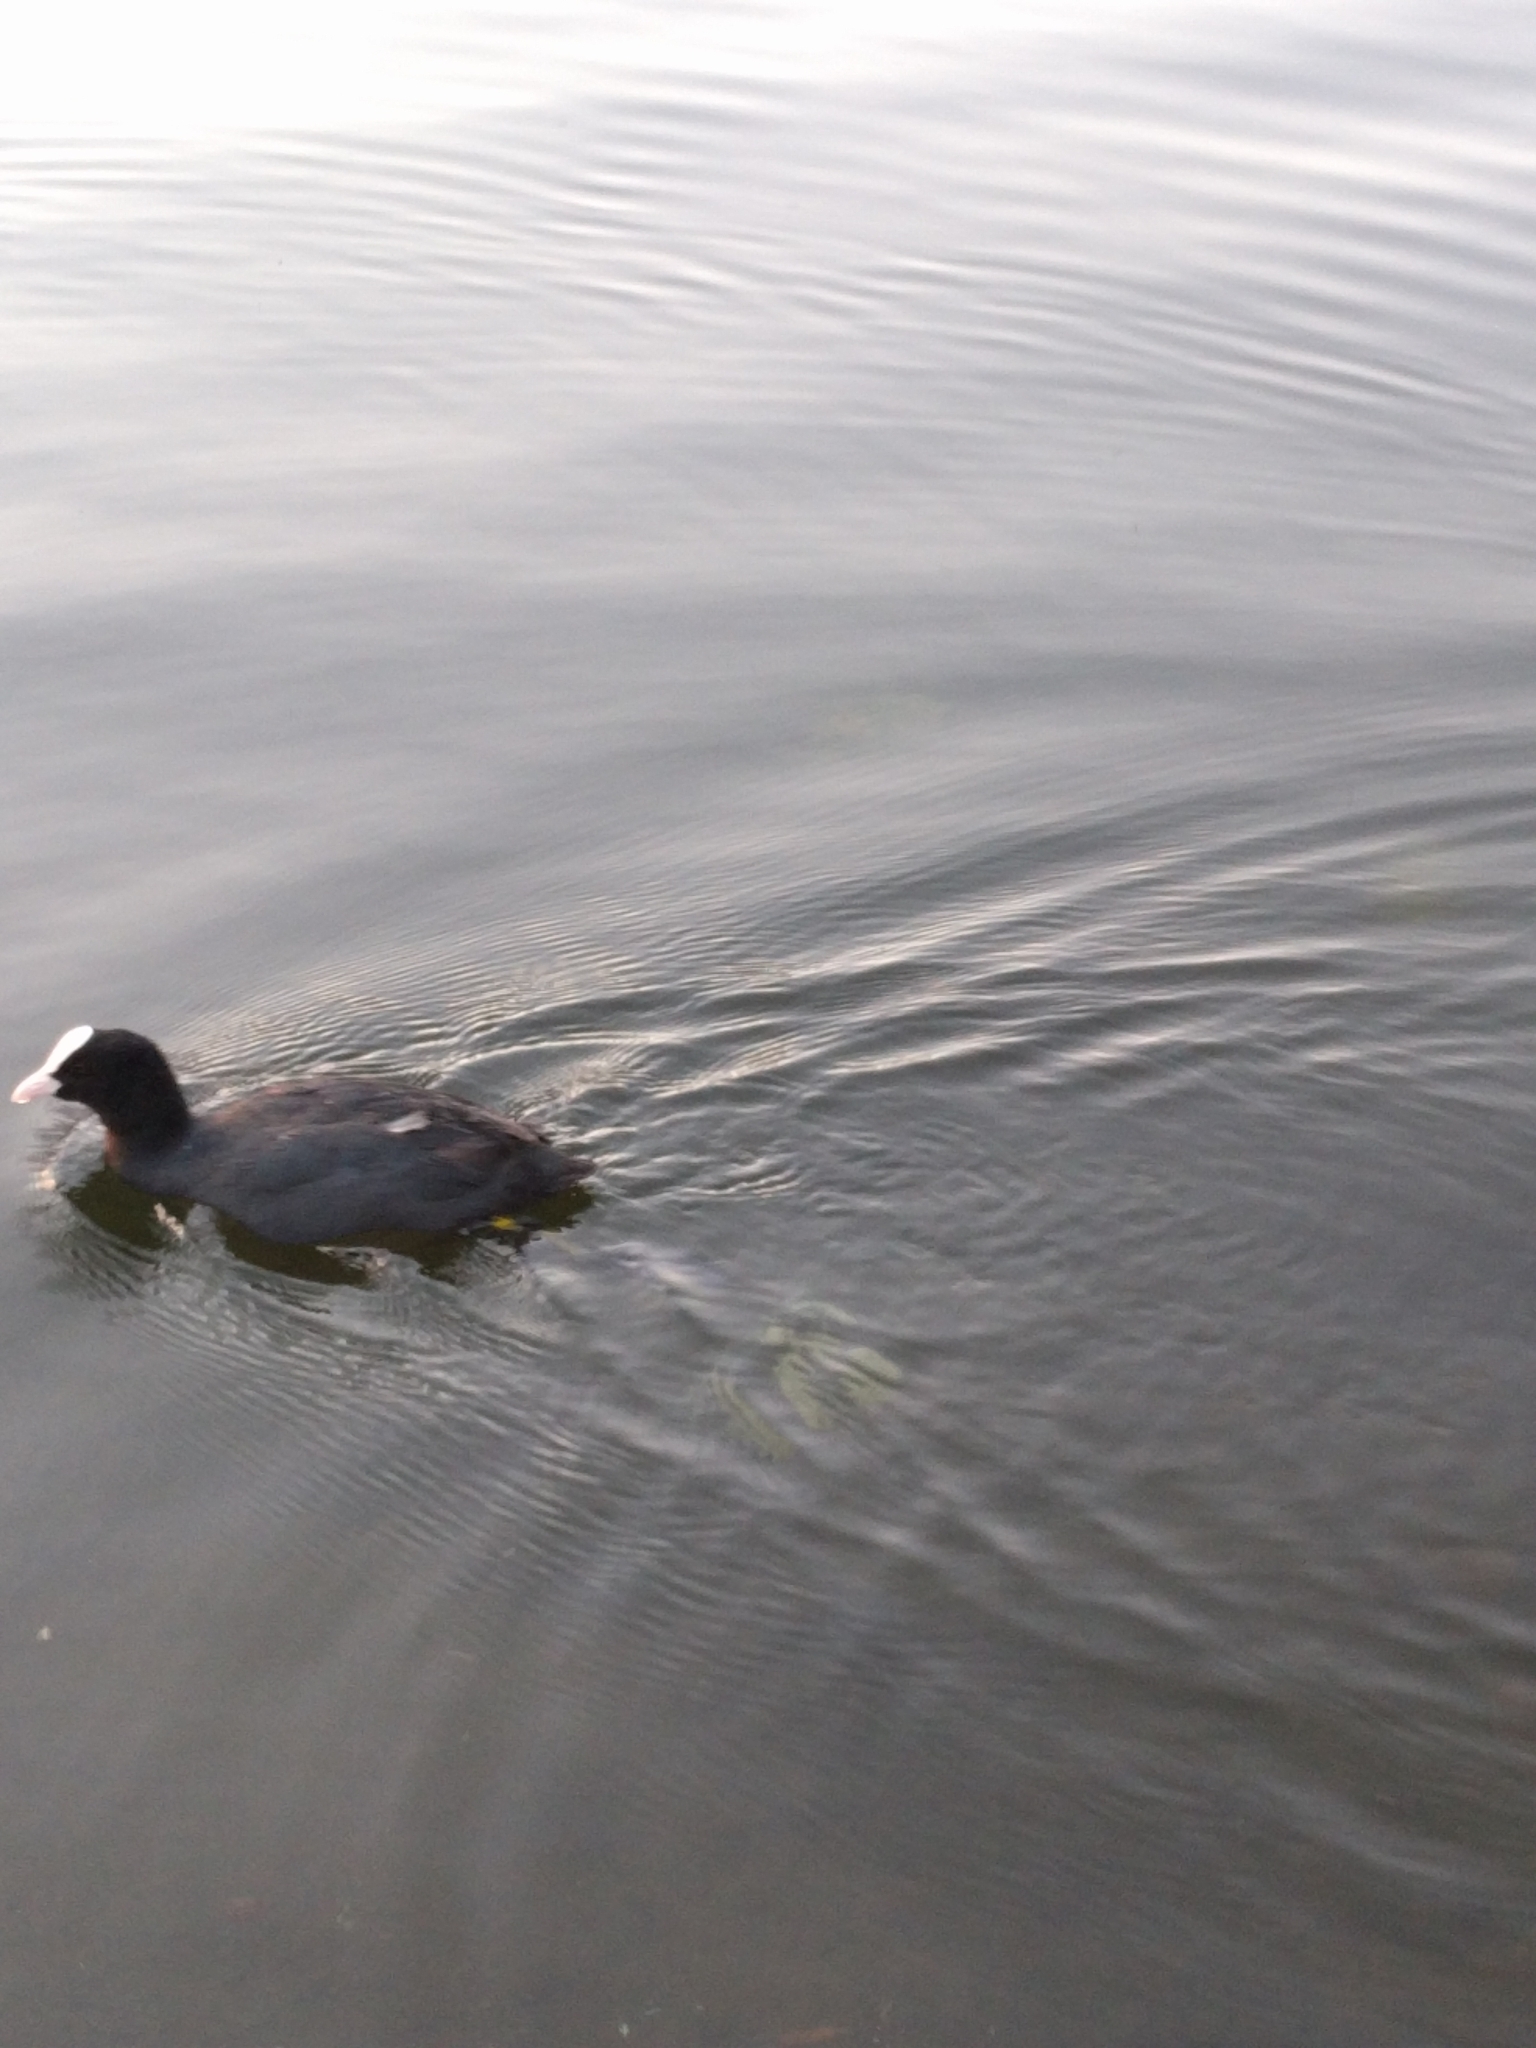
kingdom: Animalia
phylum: Chordata
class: Aves
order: Gruiformes
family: Rallidae
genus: Fulica
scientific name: Fulica atra
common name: Eurasian coot
